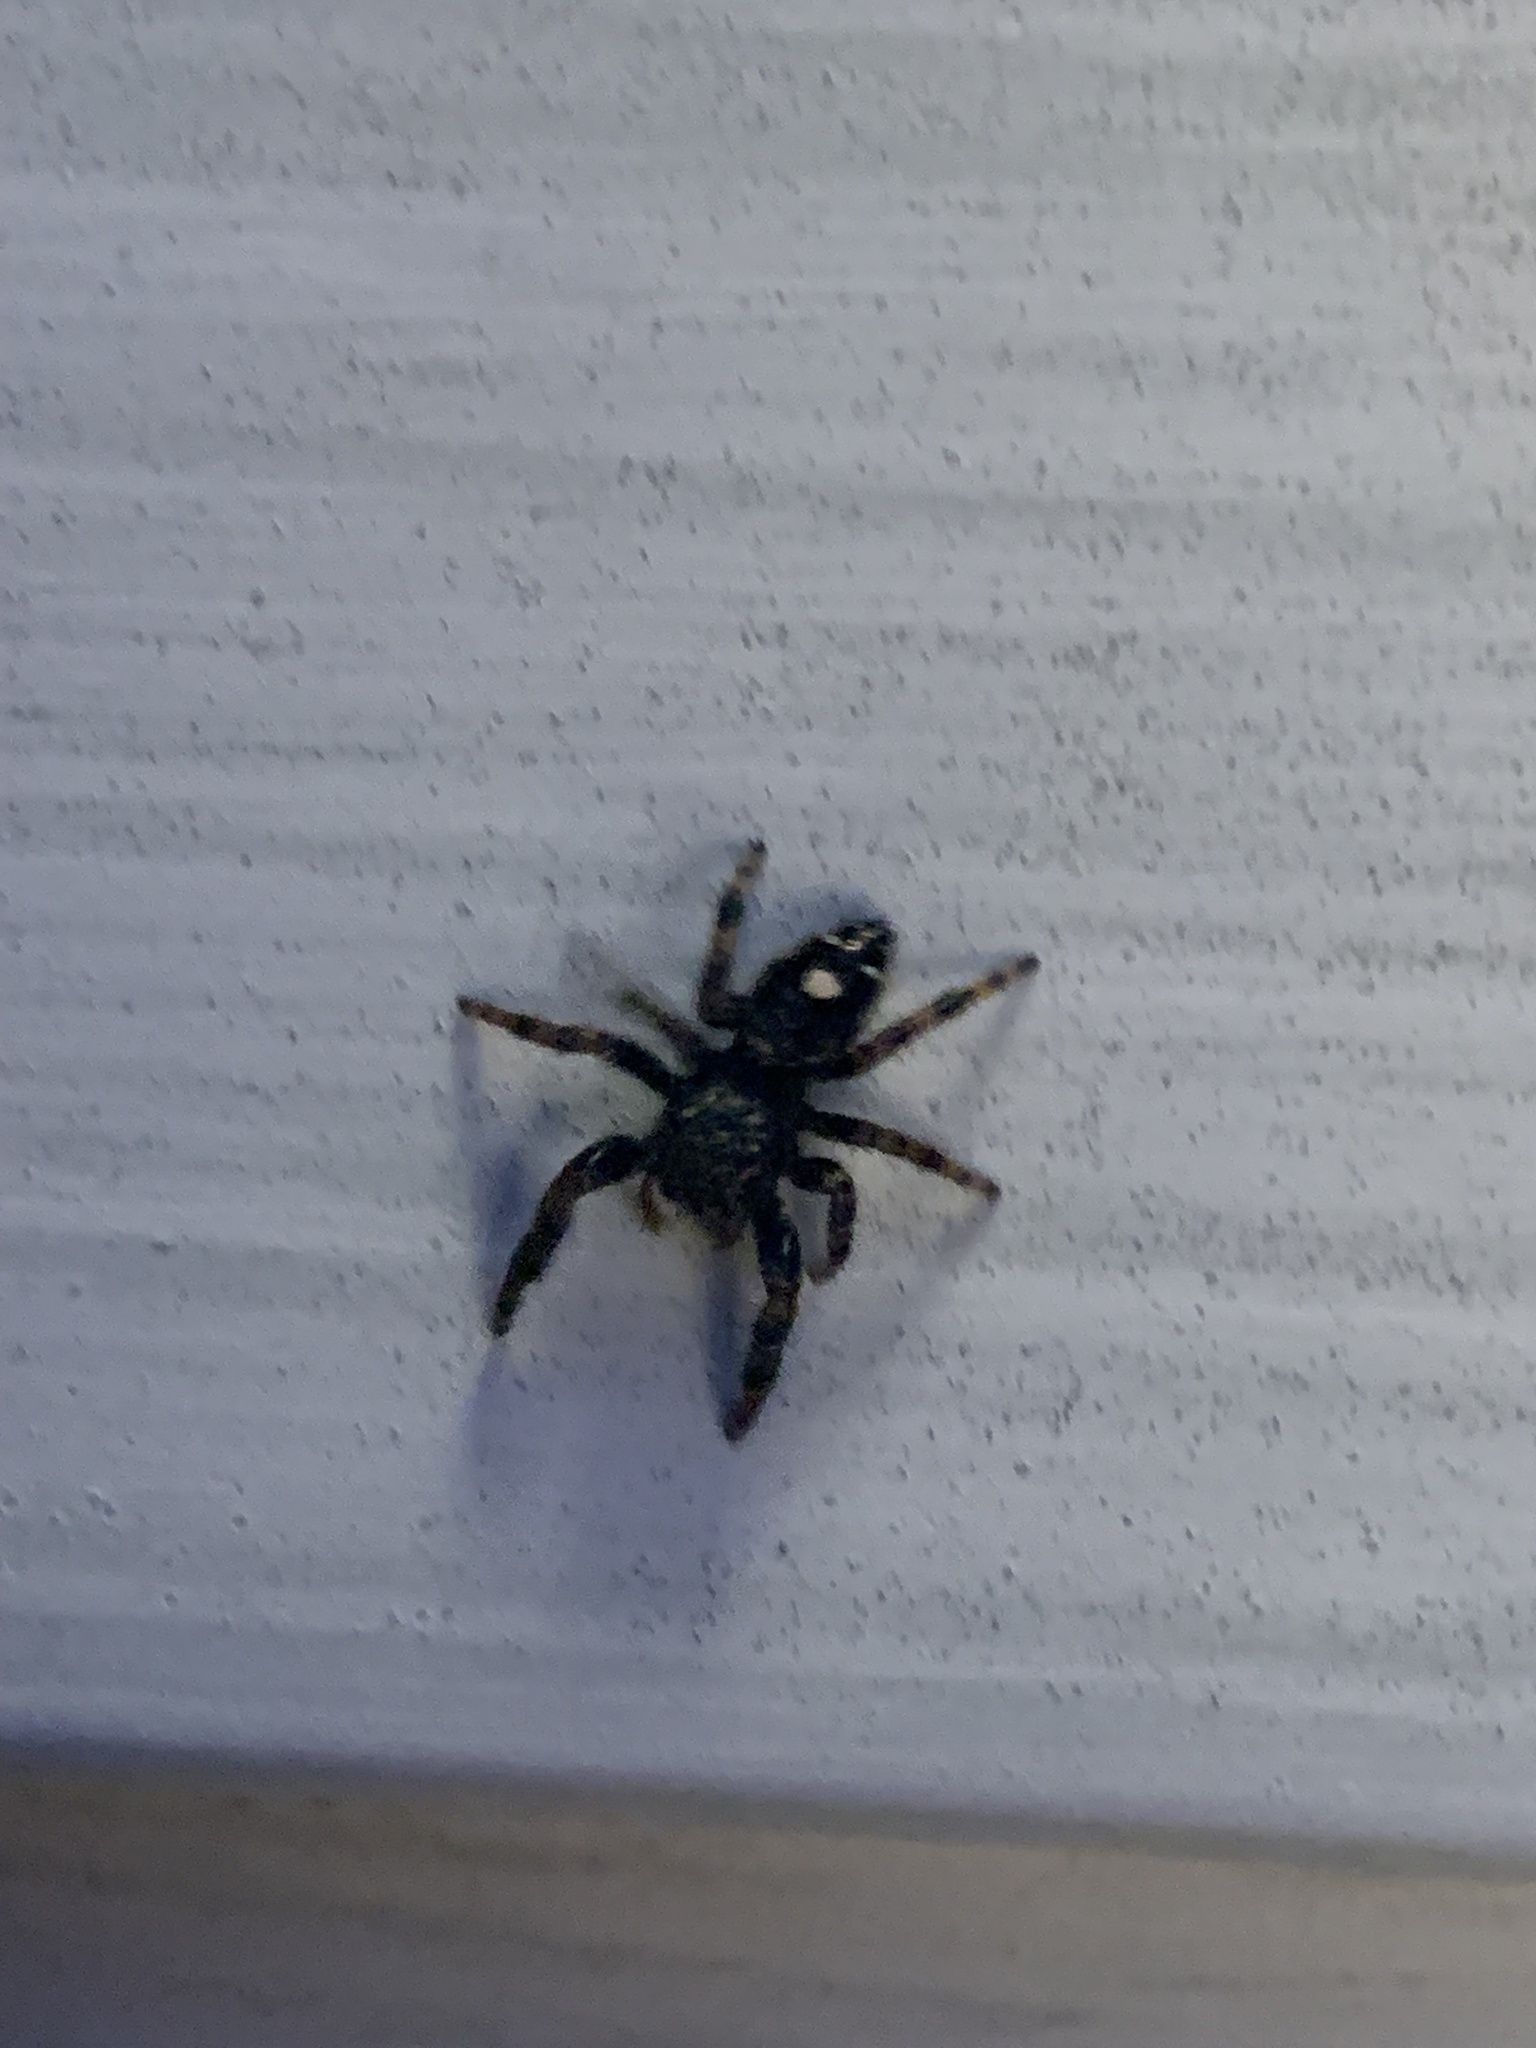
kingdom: Animalia
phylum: Arthropoda
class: Arachnida
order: Araneae
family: Salticidae
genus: Phidippus
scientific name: Phidippus audax
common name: Bold jumper
